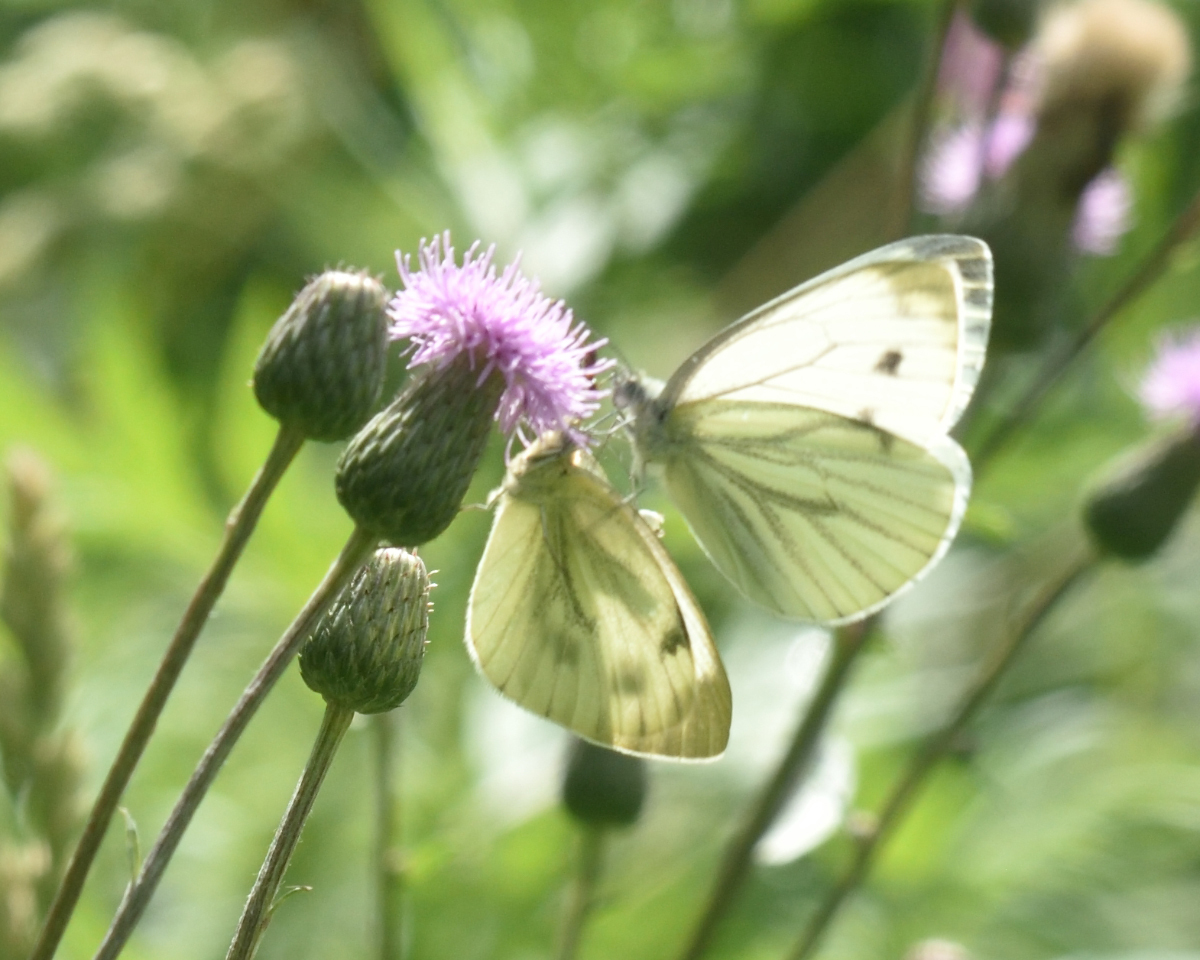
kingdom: Animalia
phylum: Arthropoda
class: Insecta
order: Lepidoptera
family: Pieridae
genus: Pieris
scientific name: Pieris napi
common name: Green-veined white
